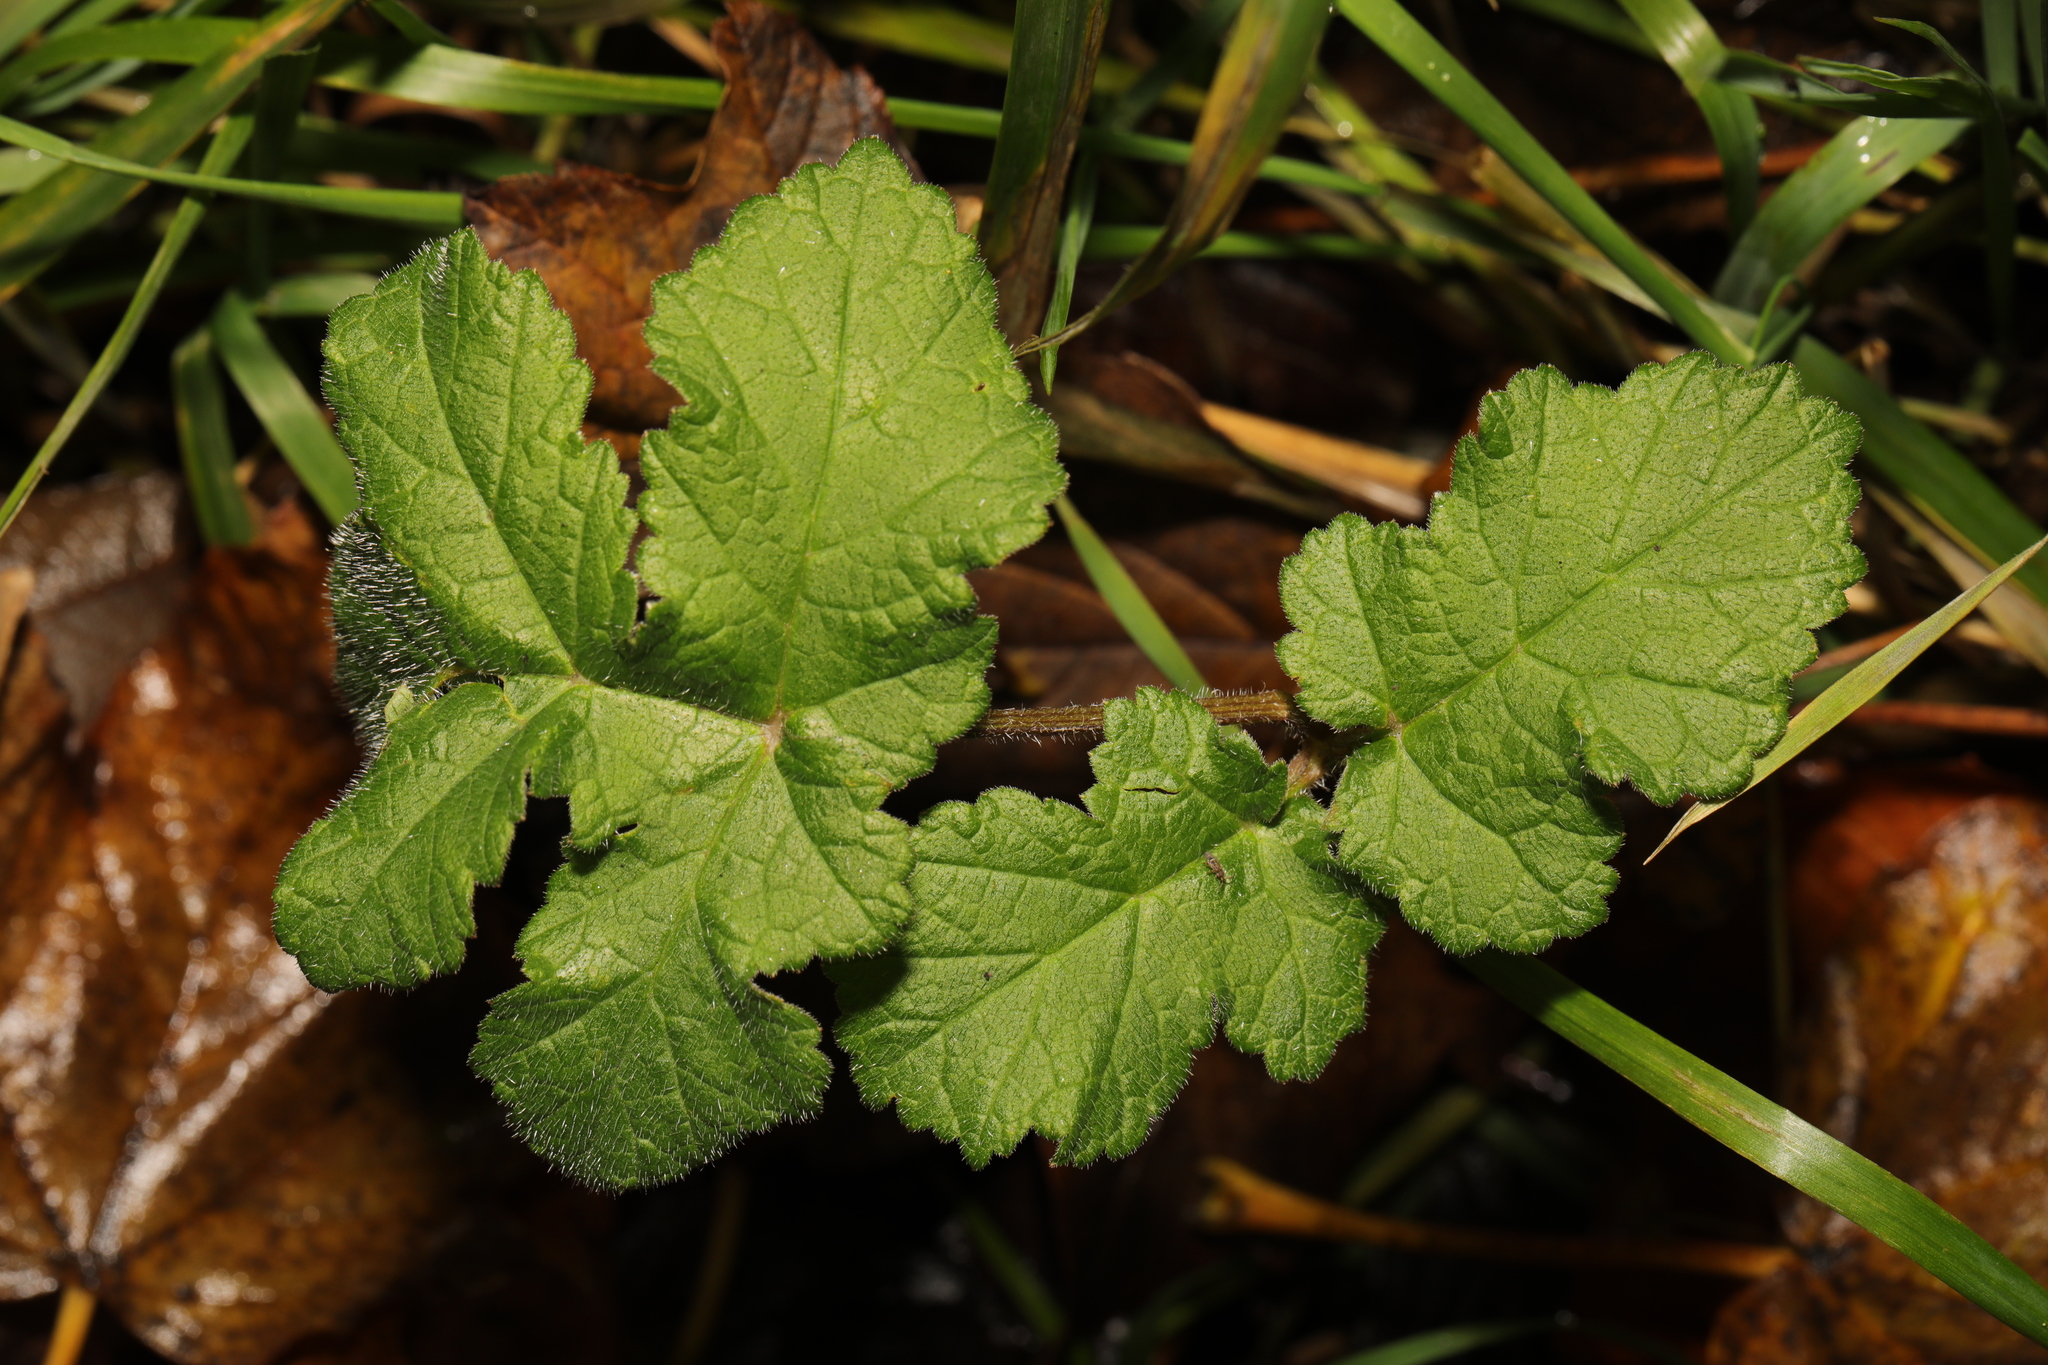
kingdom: Plantae
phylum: Tracheophyta
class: Magnoliopsida
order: Apiales
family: Apiaceae
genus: Heracleum
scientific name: Heracleum sphondylium
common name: Hogweed
